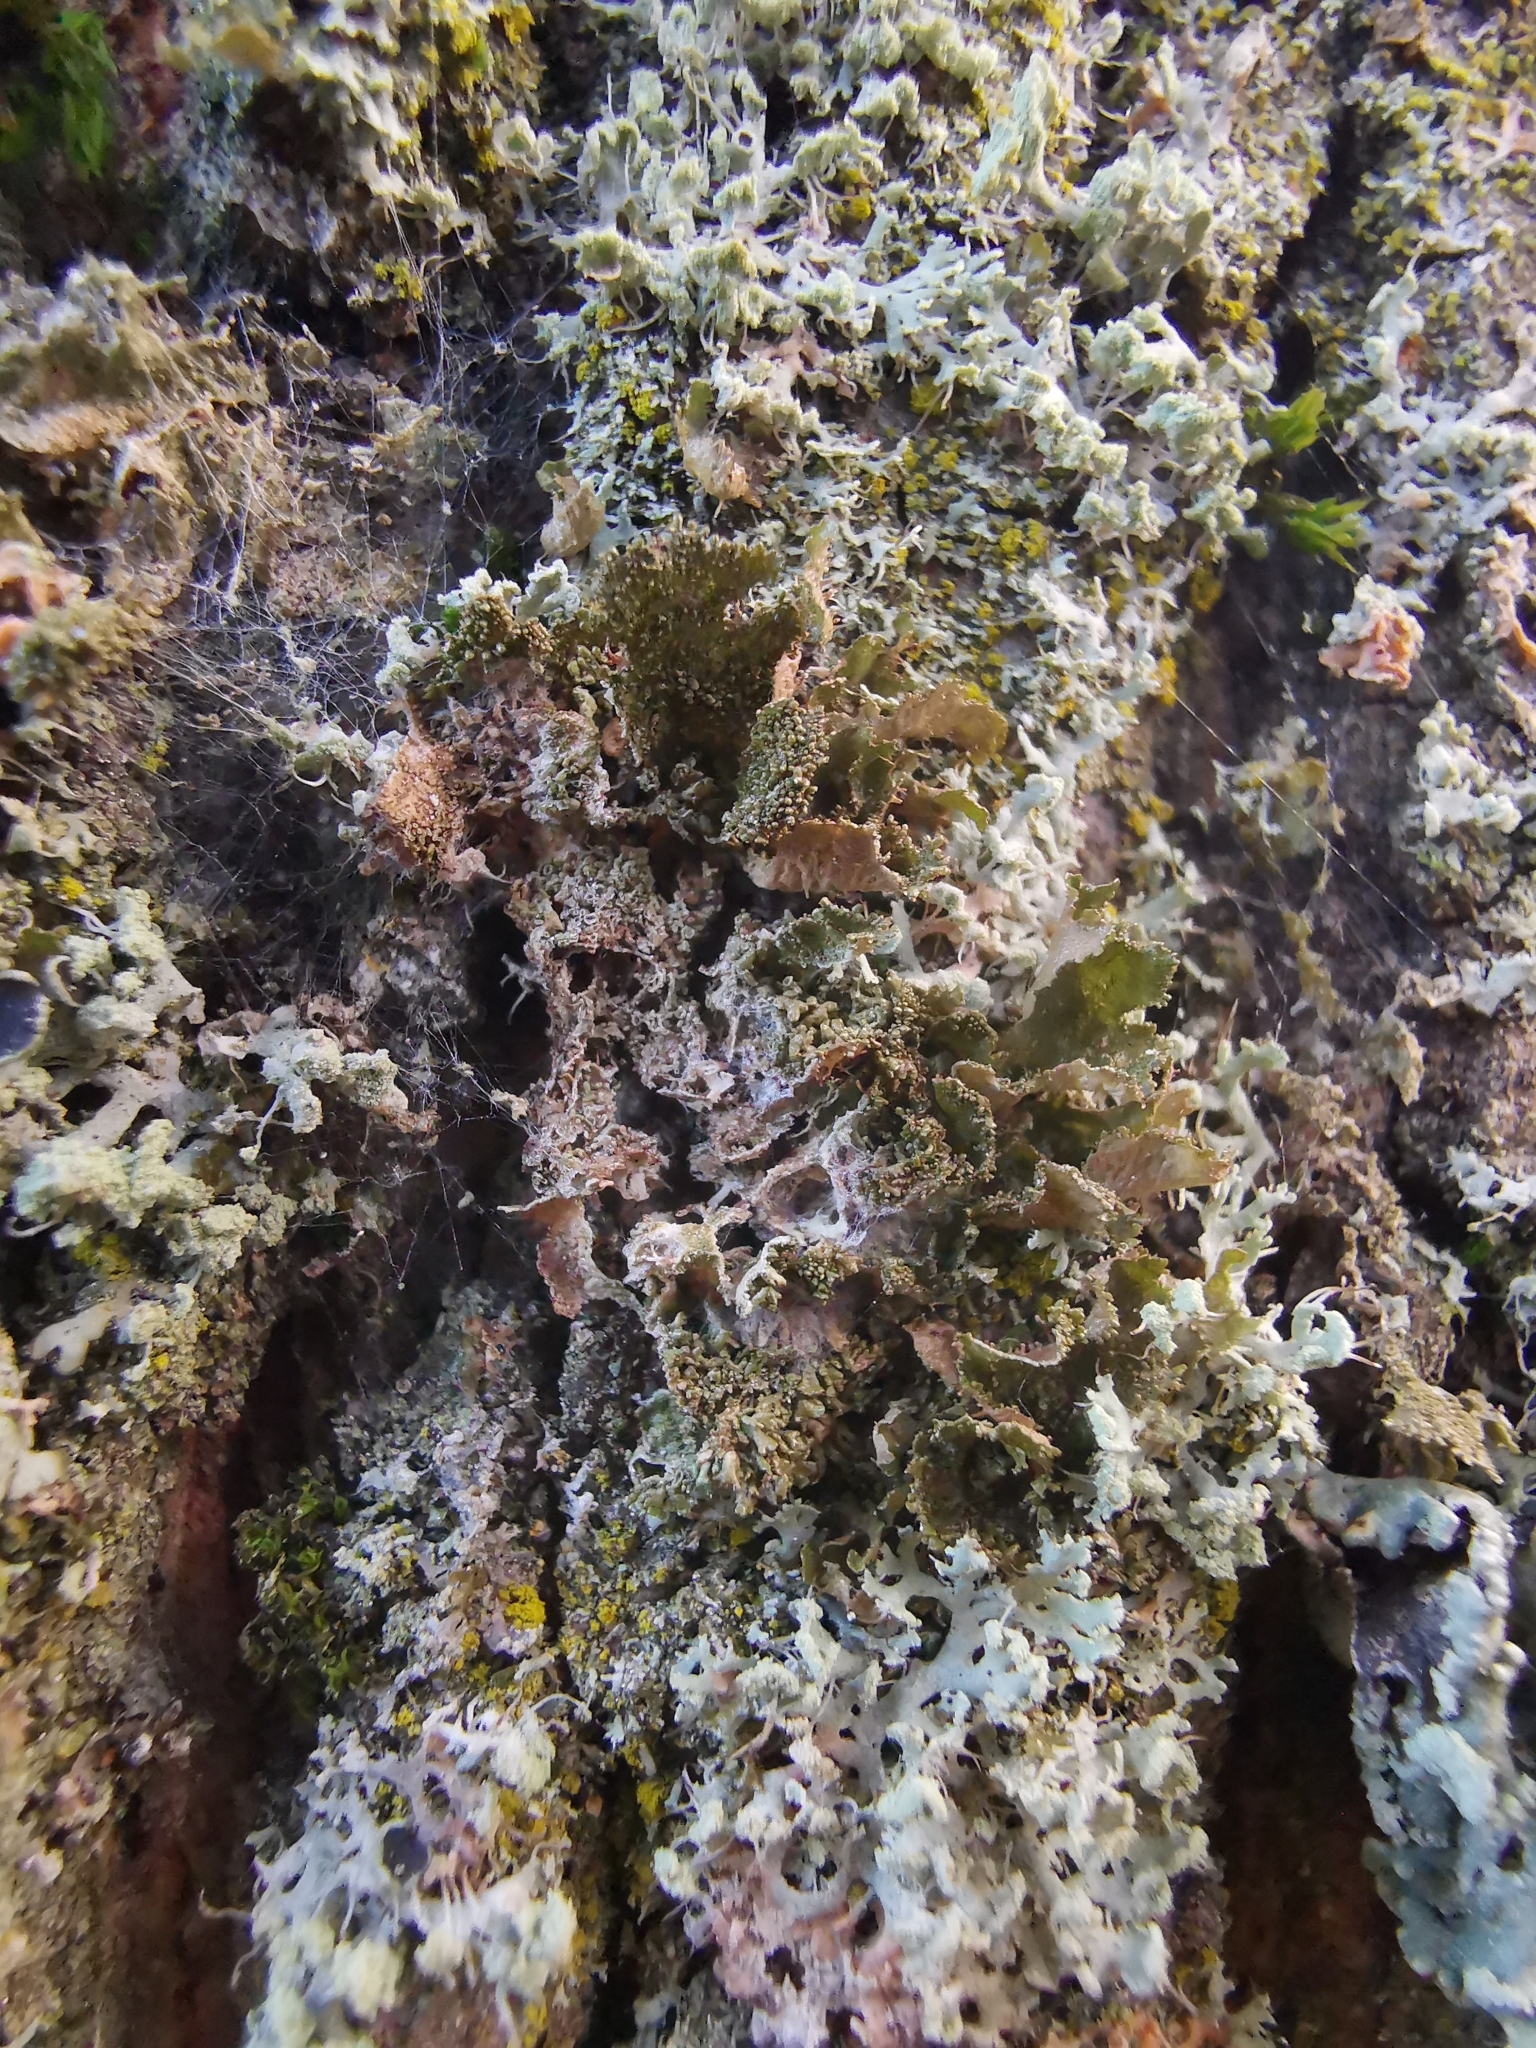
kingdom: Fungi
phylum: Ascomycota
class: Lecanoromycetes
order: Lecanorales
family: Parmeliaceae
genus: Melanohalea
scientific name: Melanohalea exasperatula
